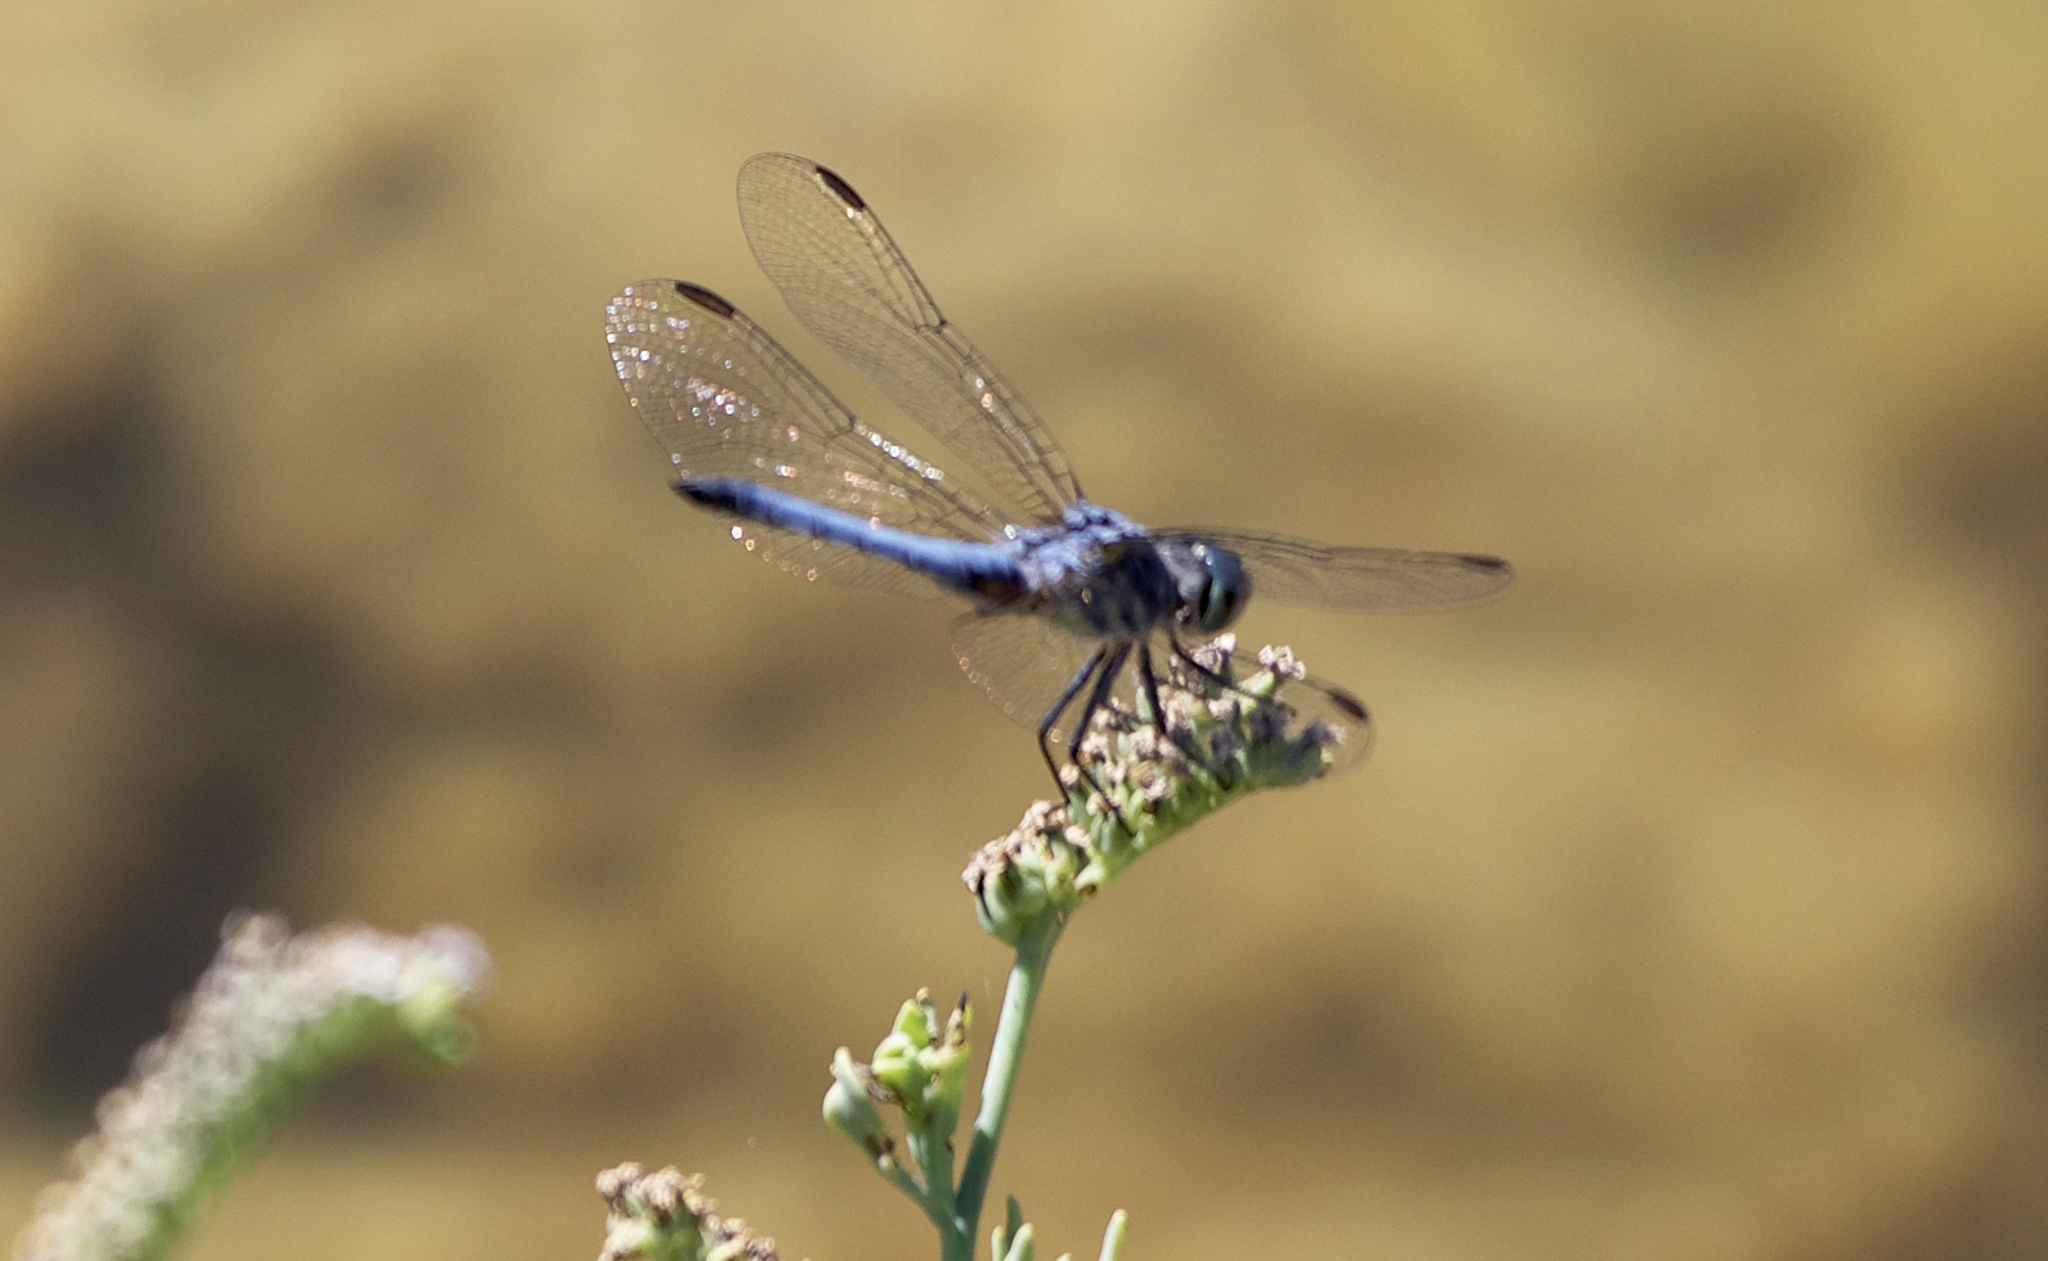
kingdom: Animalia
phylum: Arthropoda
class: Insecta
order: Odonata
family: Libellulidae
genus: Pachydiplax
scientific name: Pachydiplax longipennis
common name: Blue dasher
